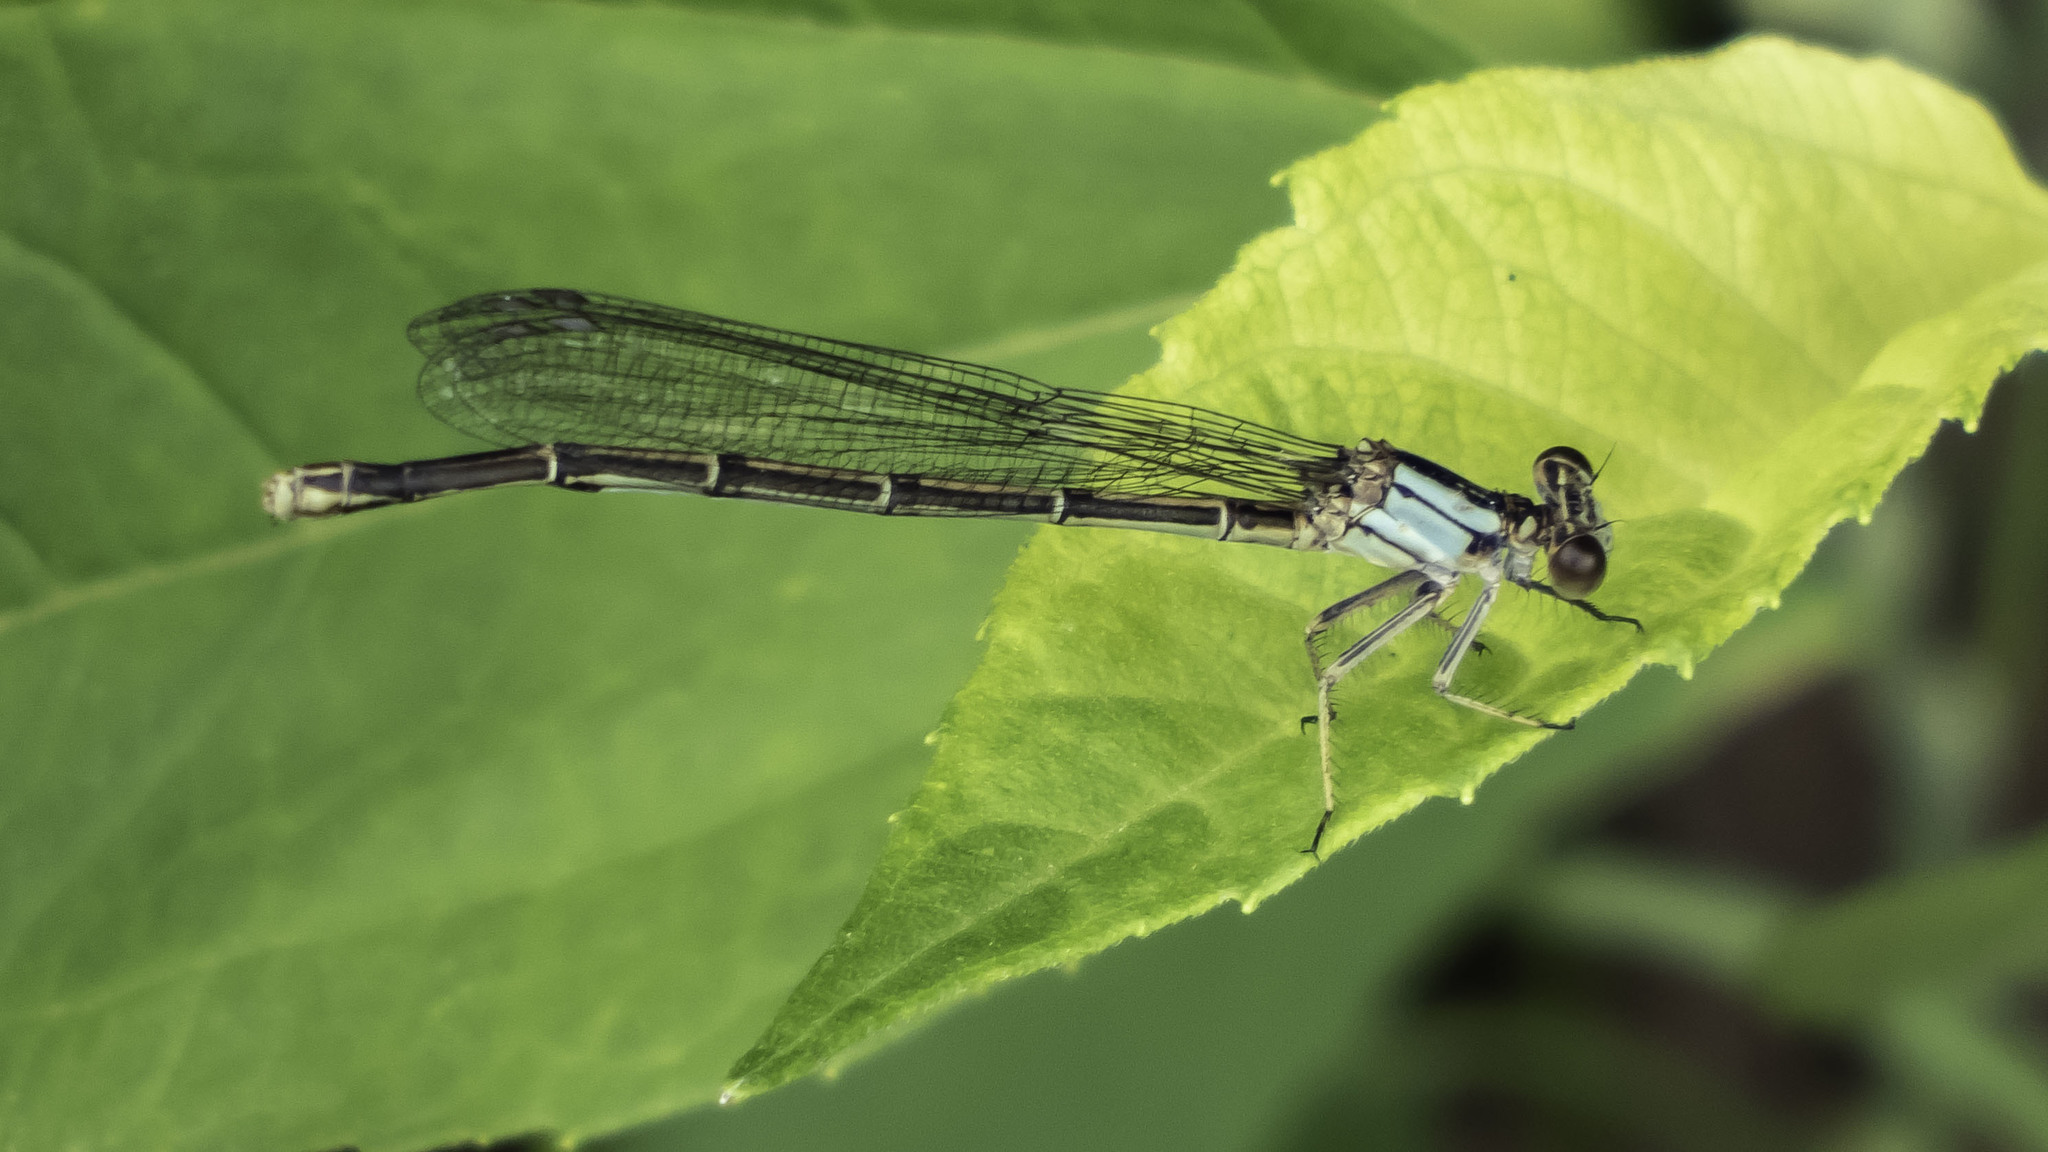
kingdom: Animalia
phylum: Arthropoda
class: Insecta
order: Odonata
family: Coenagrionidae
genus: Argia
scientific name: Argia moesta
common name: Powdered dancer
